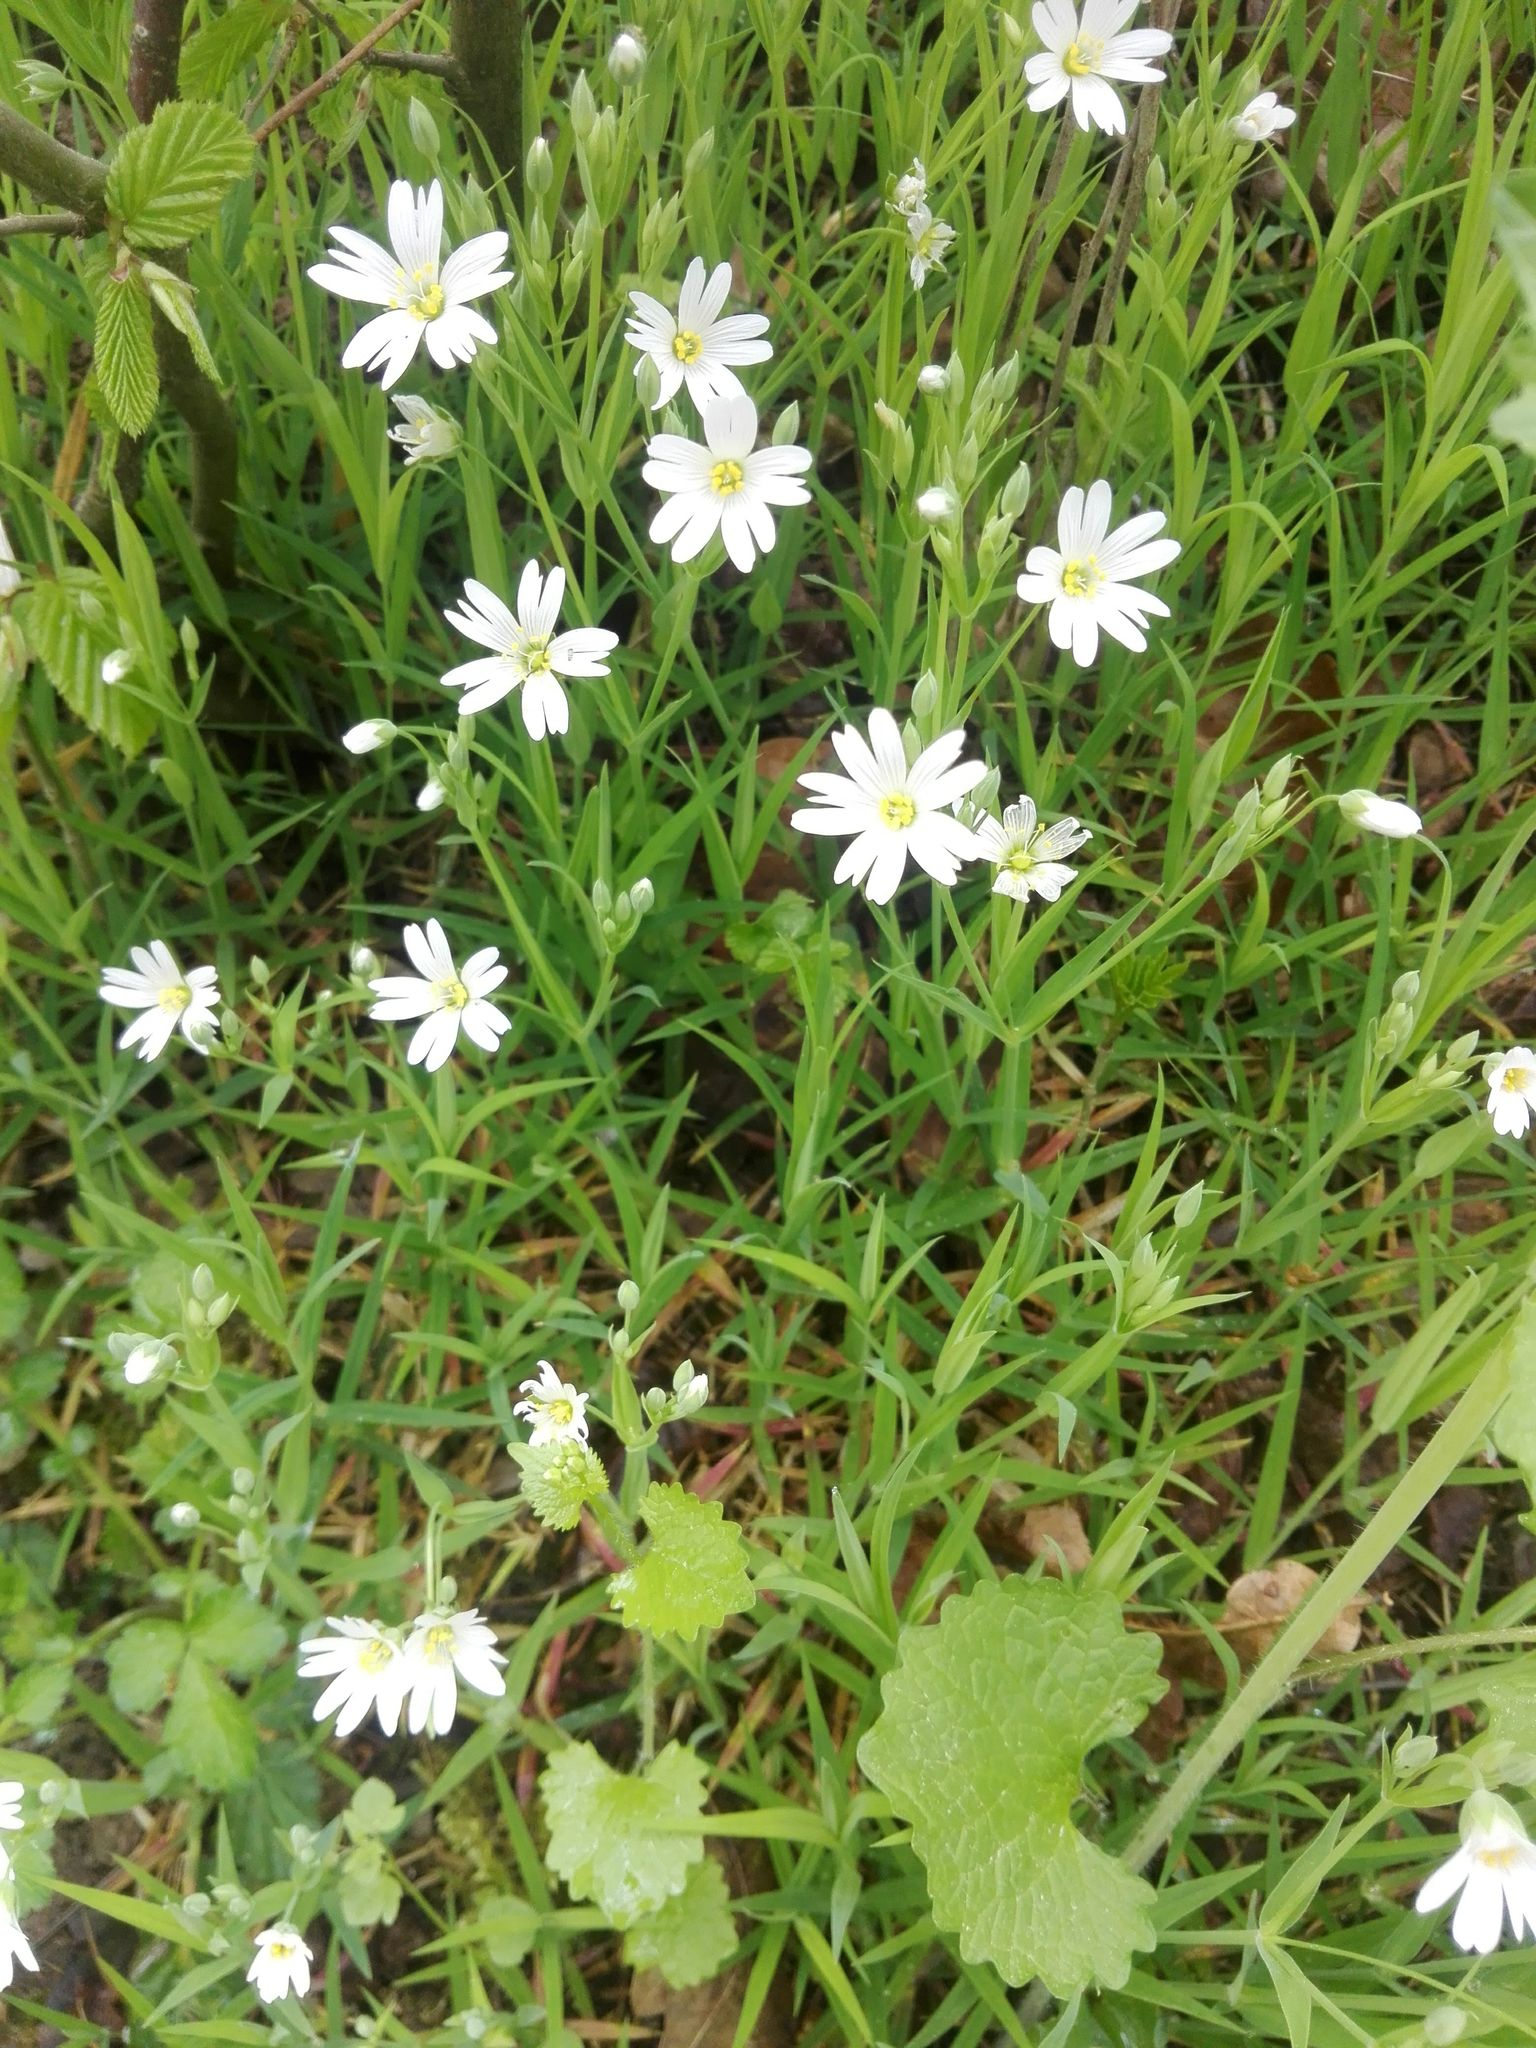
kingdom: Plantae
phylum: Tracheophyta
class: Magnoliopsida
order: Caryophyllales
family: Caryophyllaceae
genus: Rabelera
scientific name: Rabelera holostea
